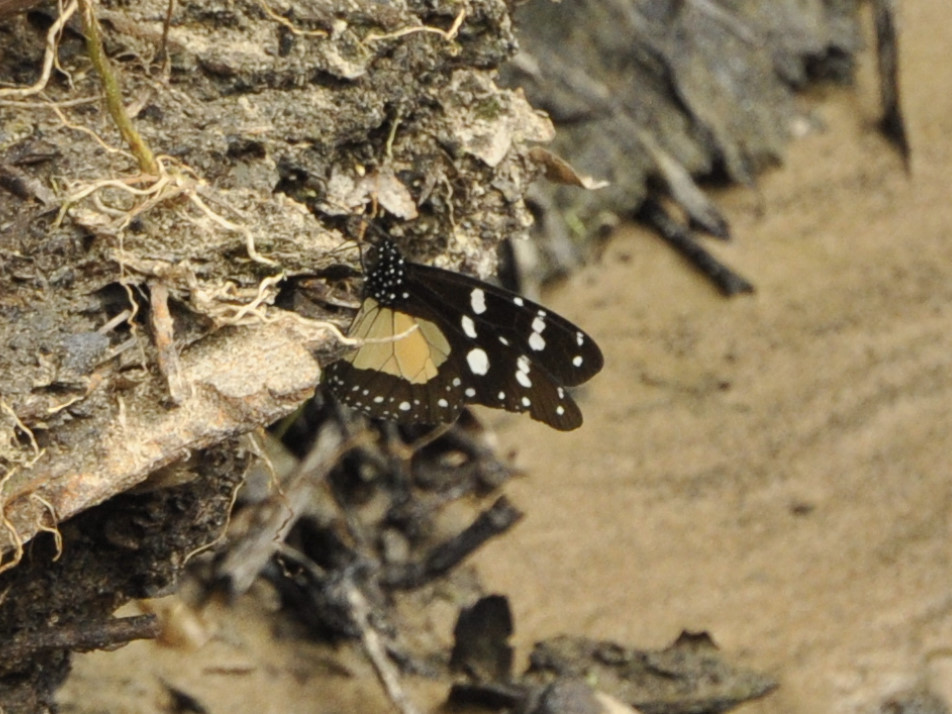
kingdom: Animalia
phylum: Arthropoda
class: Insecta
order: Lepidoptera
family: Nymphalidae
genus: Amauris
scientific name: Amauris echeria
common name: Chief
